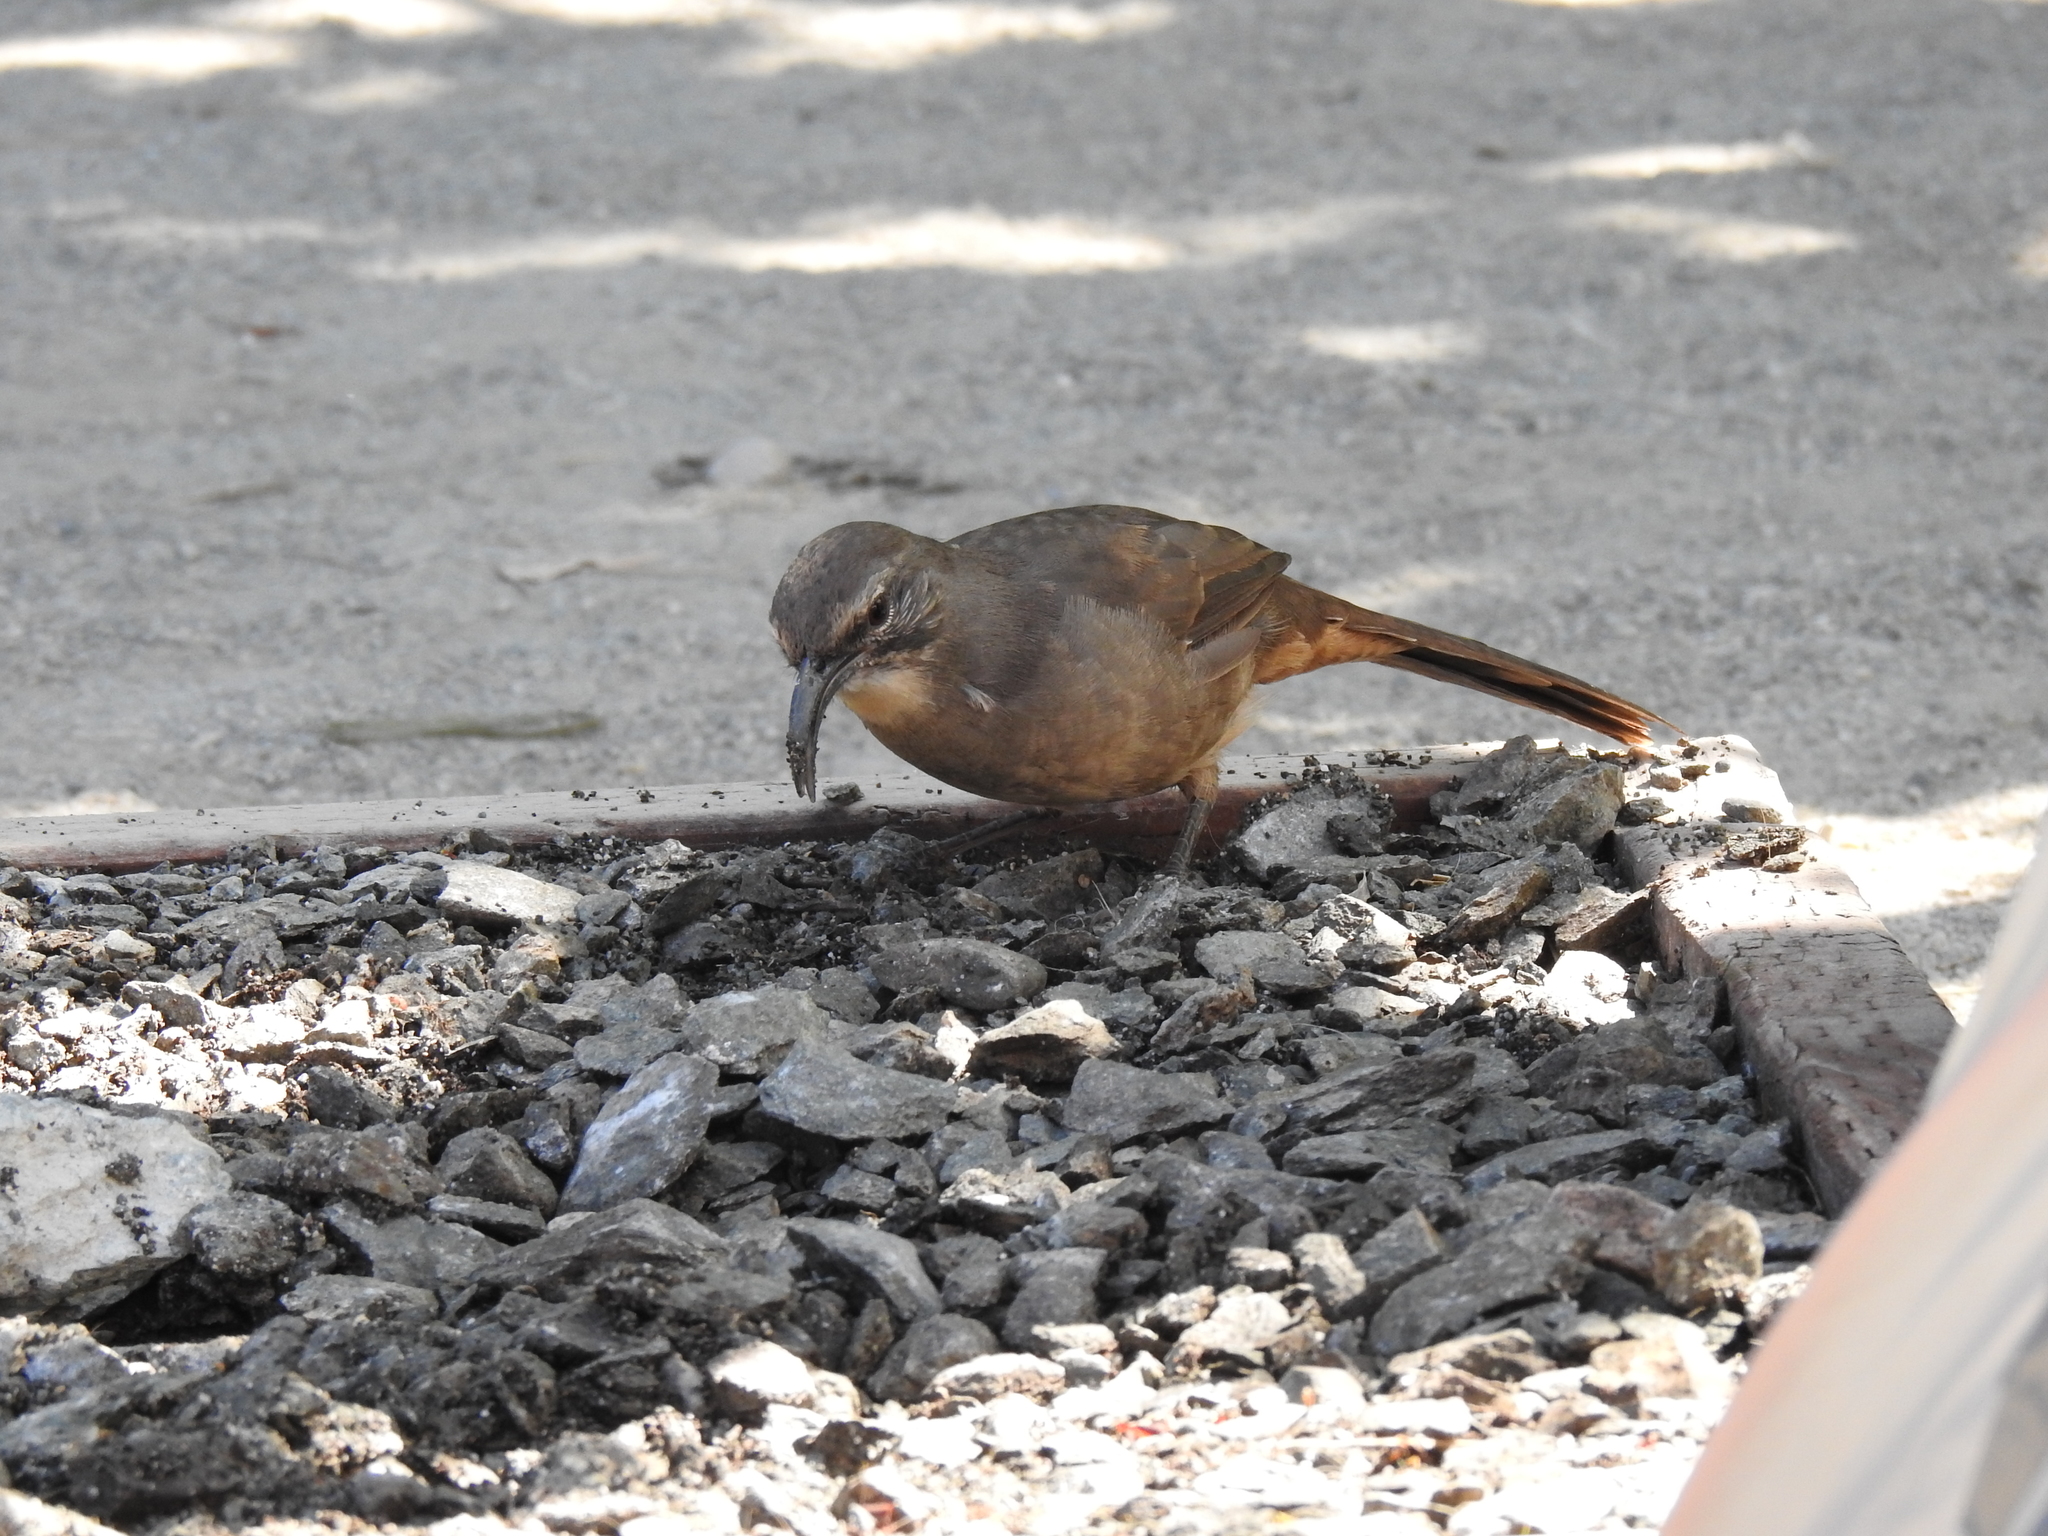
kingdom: Animalia
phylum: Chordata
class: Aves
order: Passeriformes
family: Mimidae
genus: Toxostoma
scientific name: Toxostoma redivivum
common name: California thrasher
